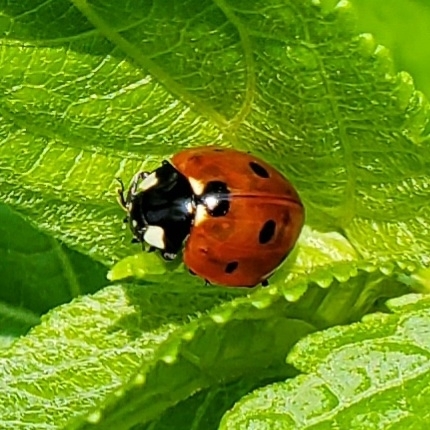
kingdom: Animalia
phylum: Arthropoda
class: Insecta
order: Coleoptera
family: Coccinellidae
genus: Coccinella
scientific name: Coccinella septempunctata
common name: Sevenspotted lady beetle
